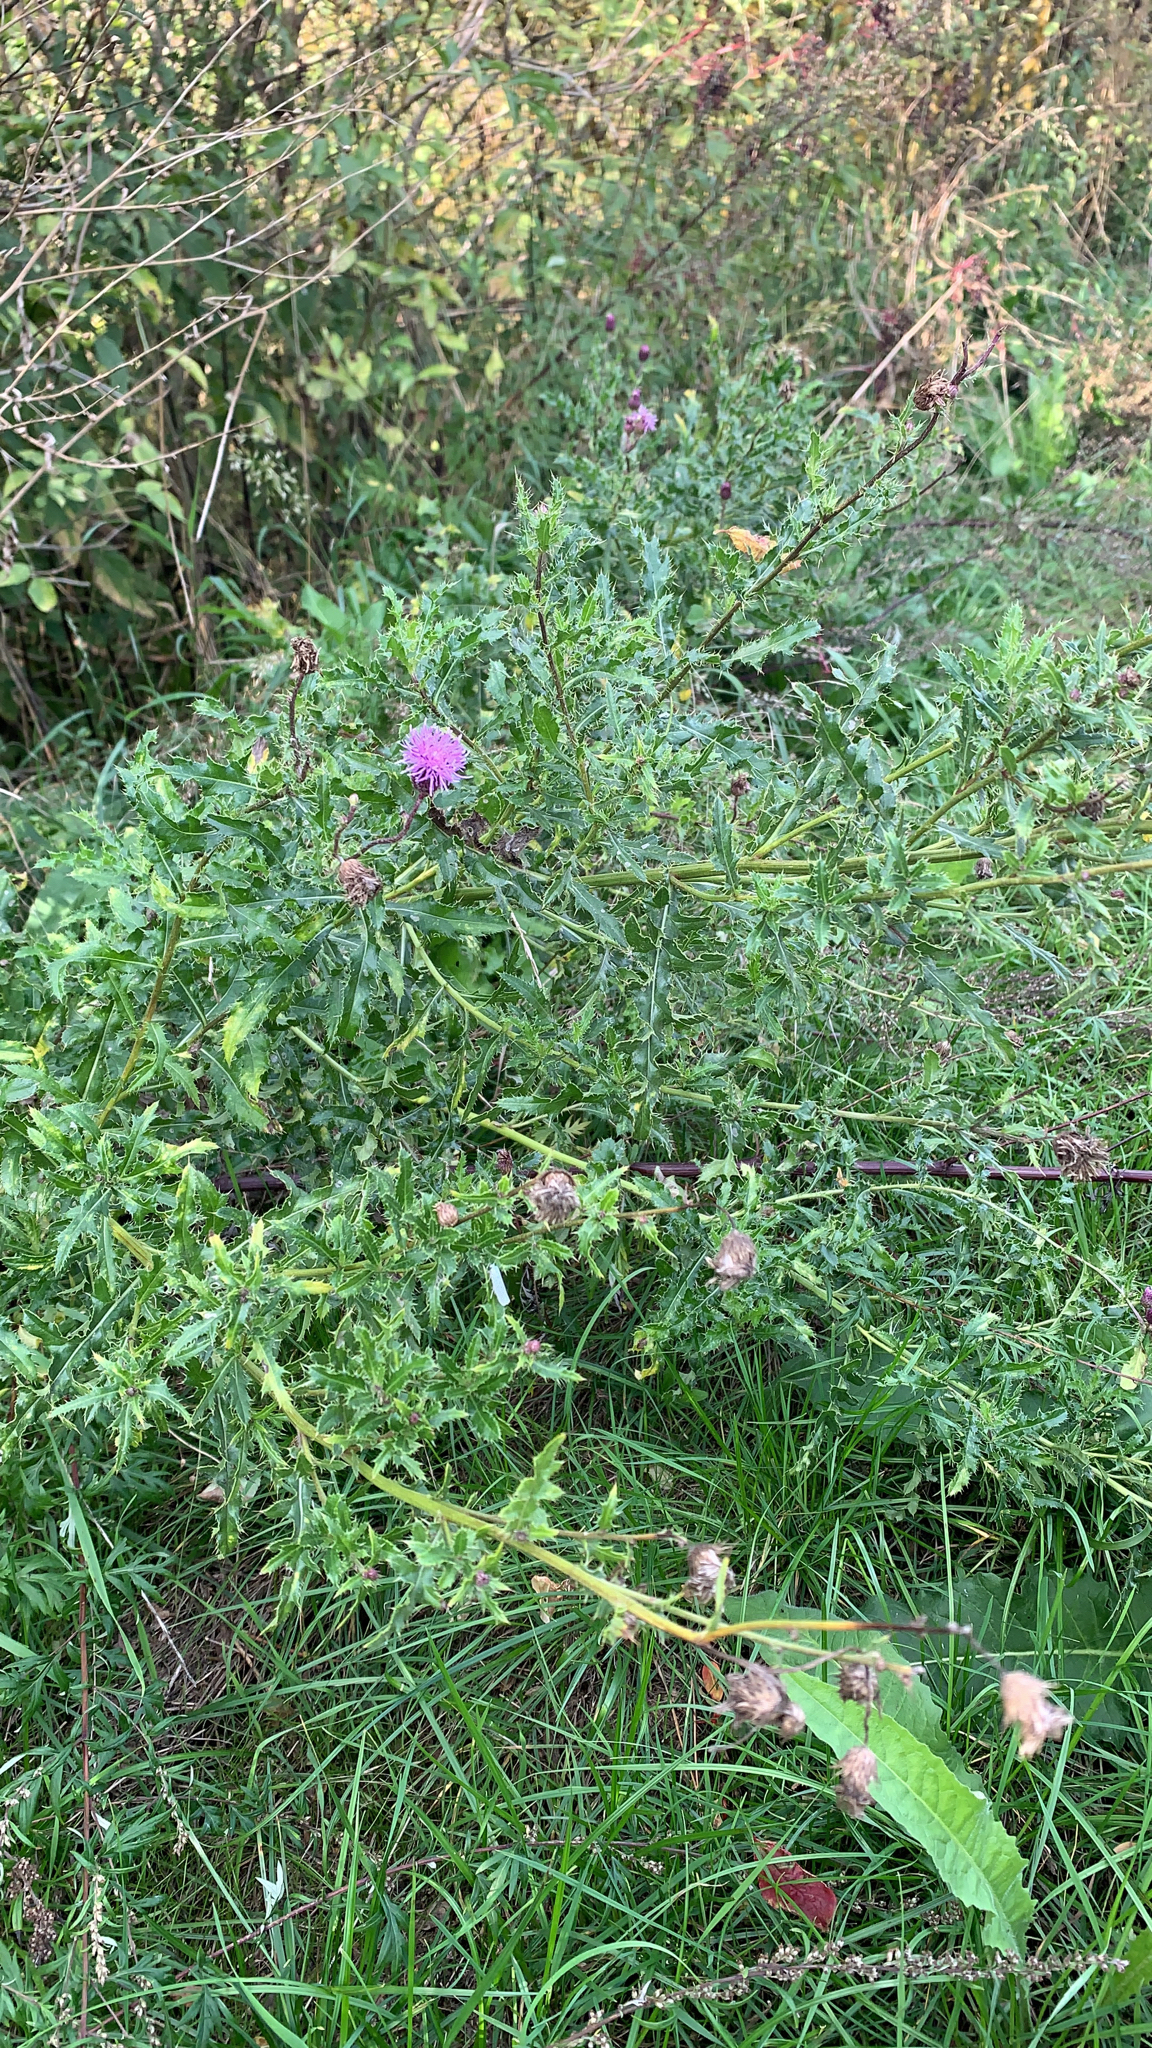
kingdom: Plantae
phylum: Tracheophyta
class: Magnoliopsida
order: Asterales
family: Asteraceae
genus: Cirsium
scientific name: Cirsium arvense
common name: Creeping thistle
